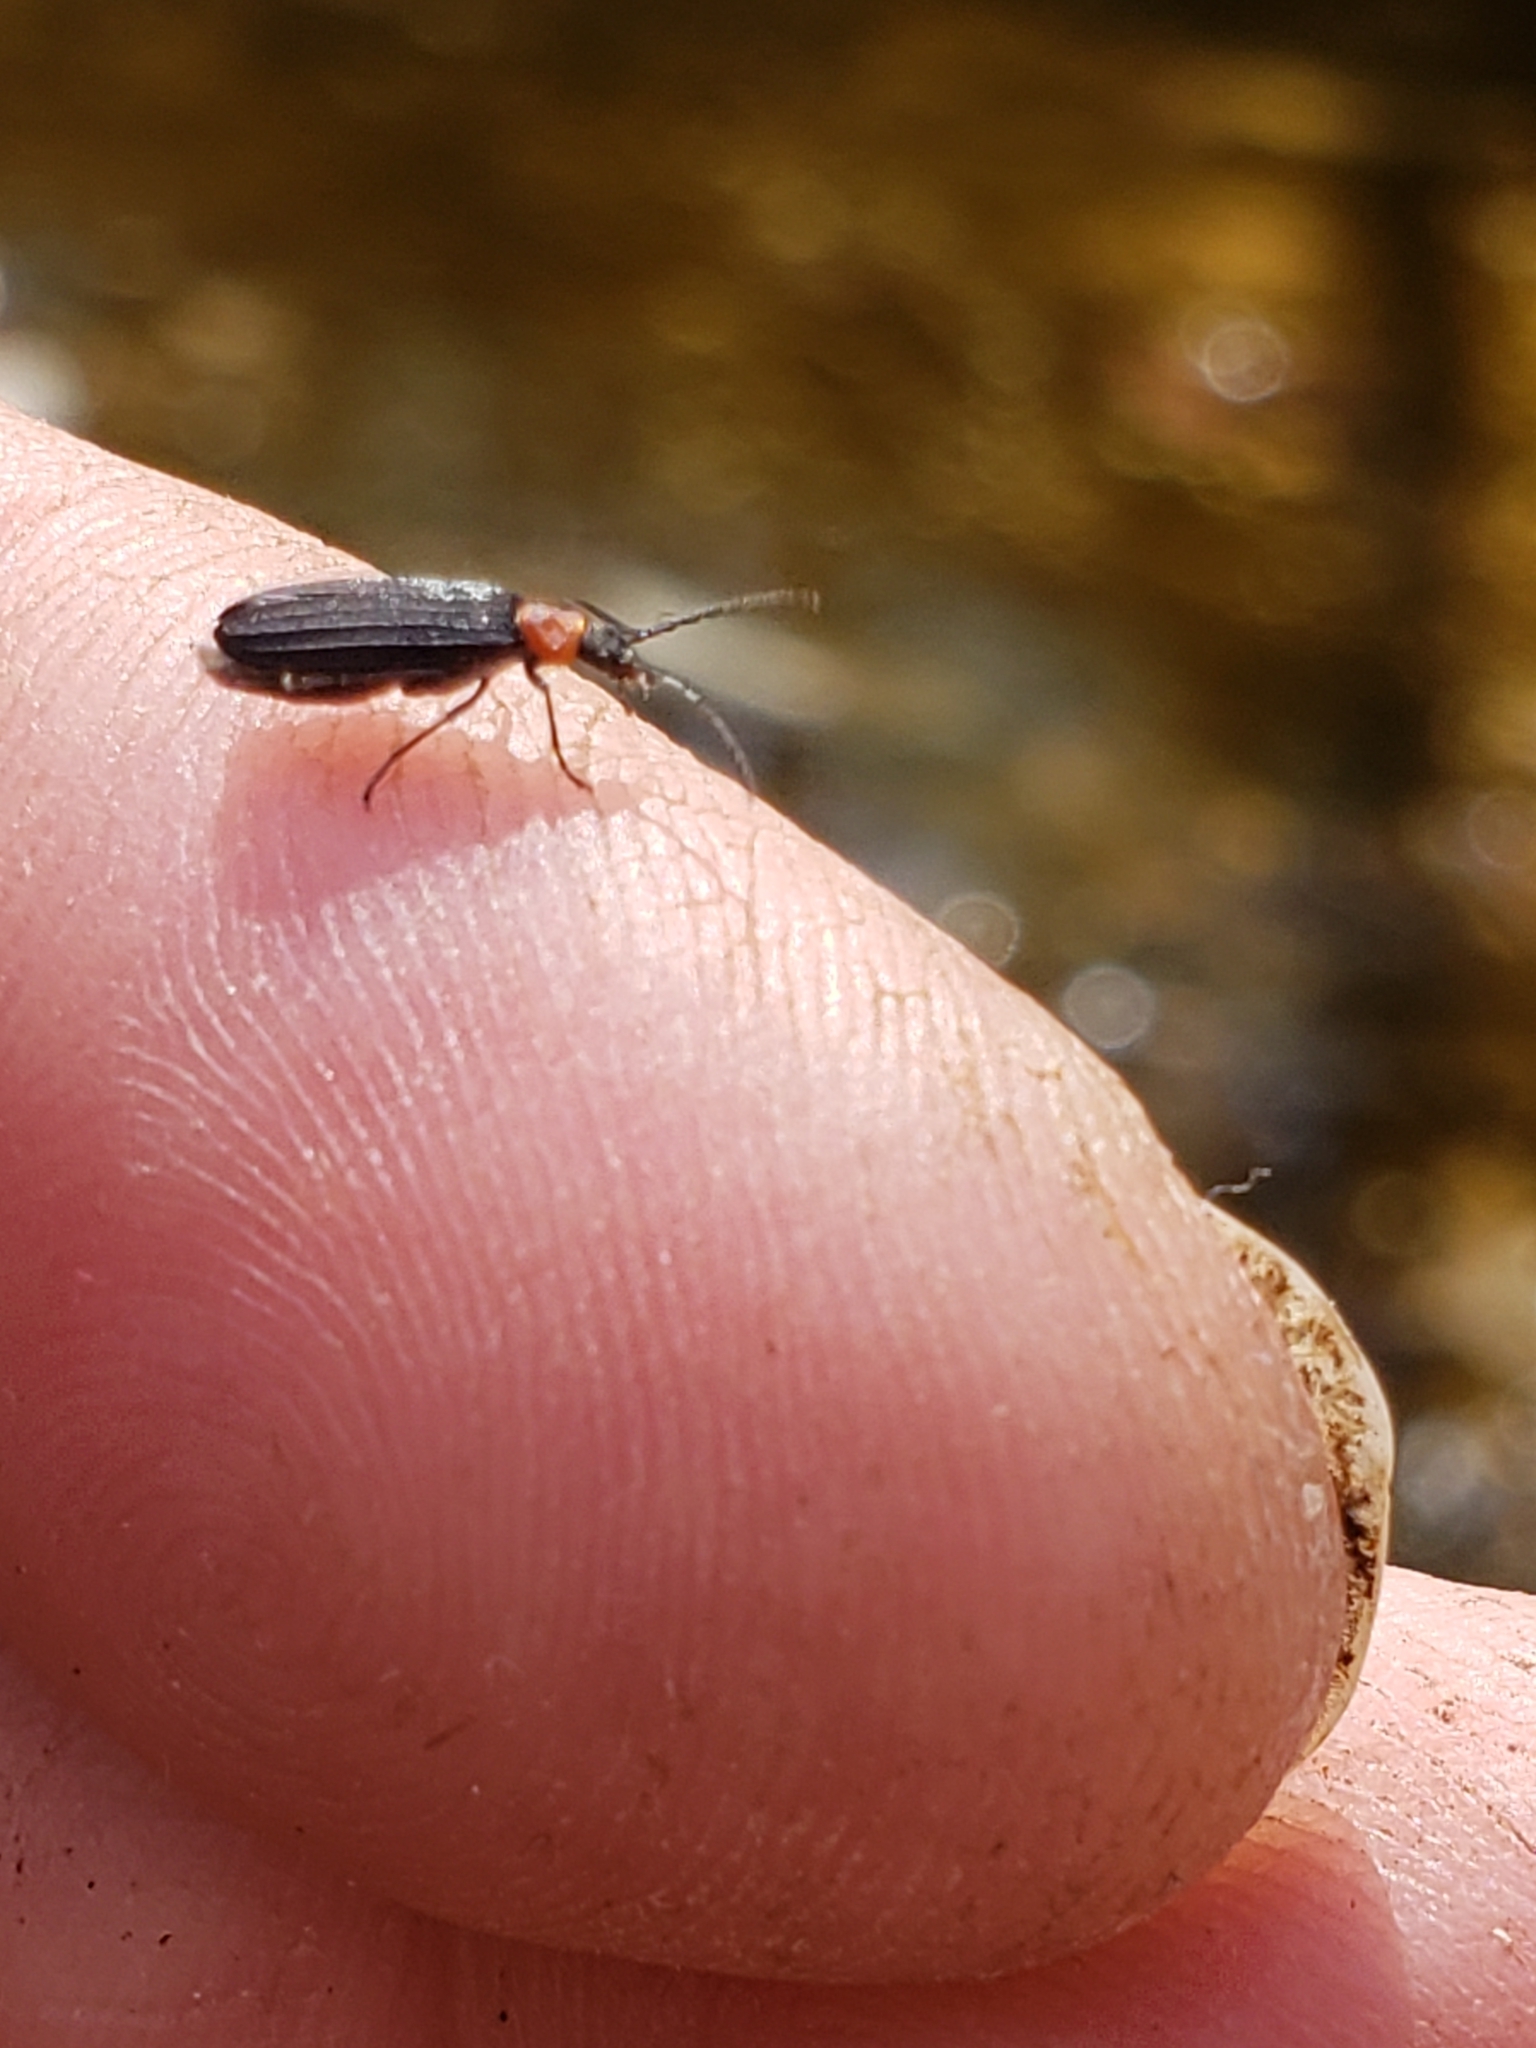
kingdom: Animalia
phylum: Arthropoda
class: Insecta
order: Coleoptera
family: Oedemeridae
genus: Ischnomera
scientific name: Ischnomera
